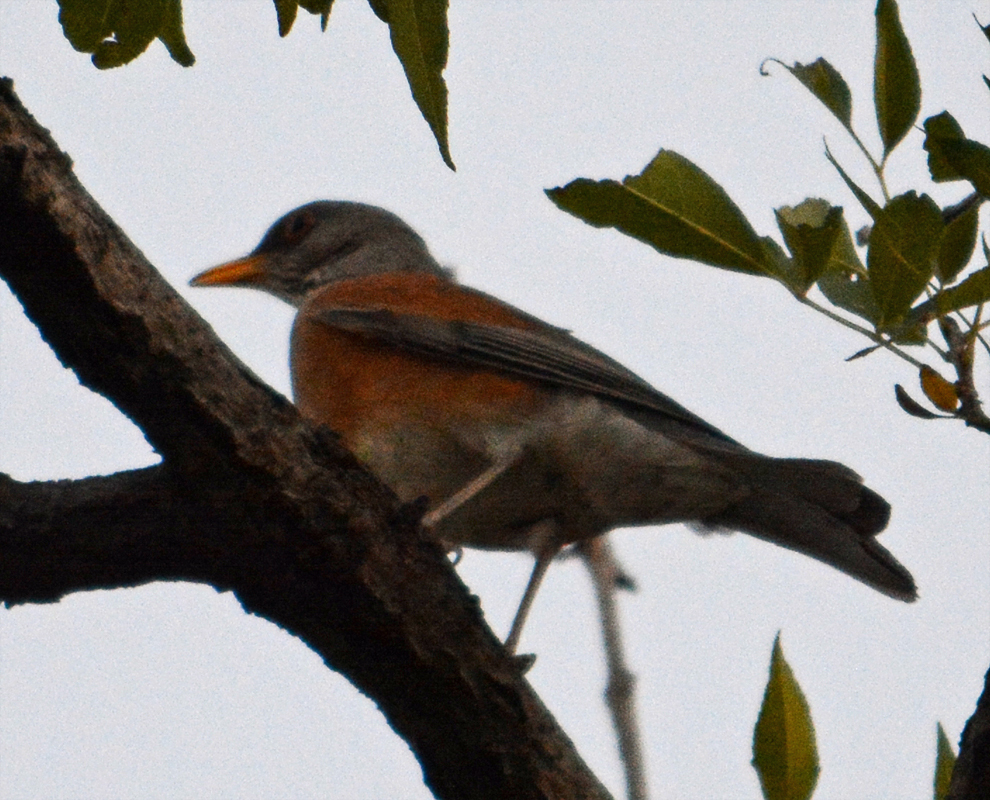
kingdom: Animalia
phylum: Chordata
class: Aves
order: Passeriformes
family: Turdidae
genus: Turdus
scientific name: Turdus rufopalliatus
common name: Rufous-backed robin
